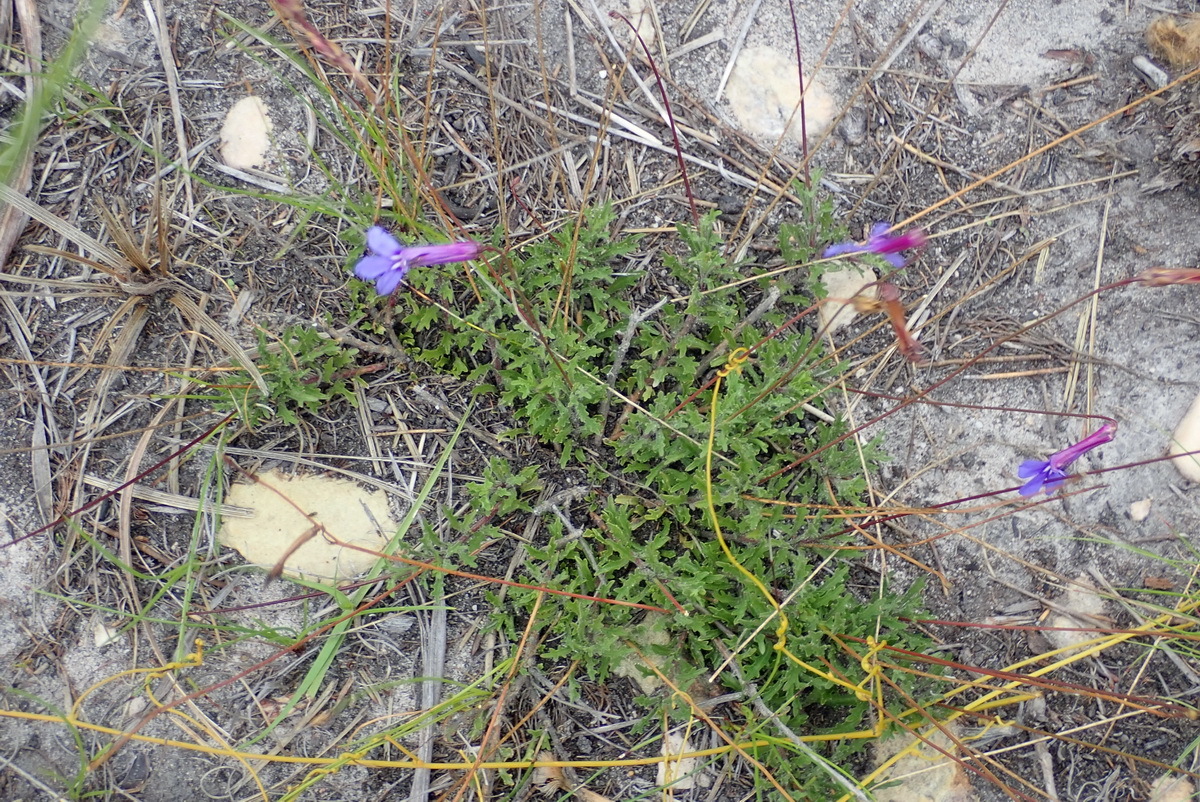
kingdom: Plantae
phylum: Tracheophyta
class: Magnoliopsida
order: Asterales
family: Campanulaceae
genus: Lobelia
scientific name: Lobelia tomentosa
